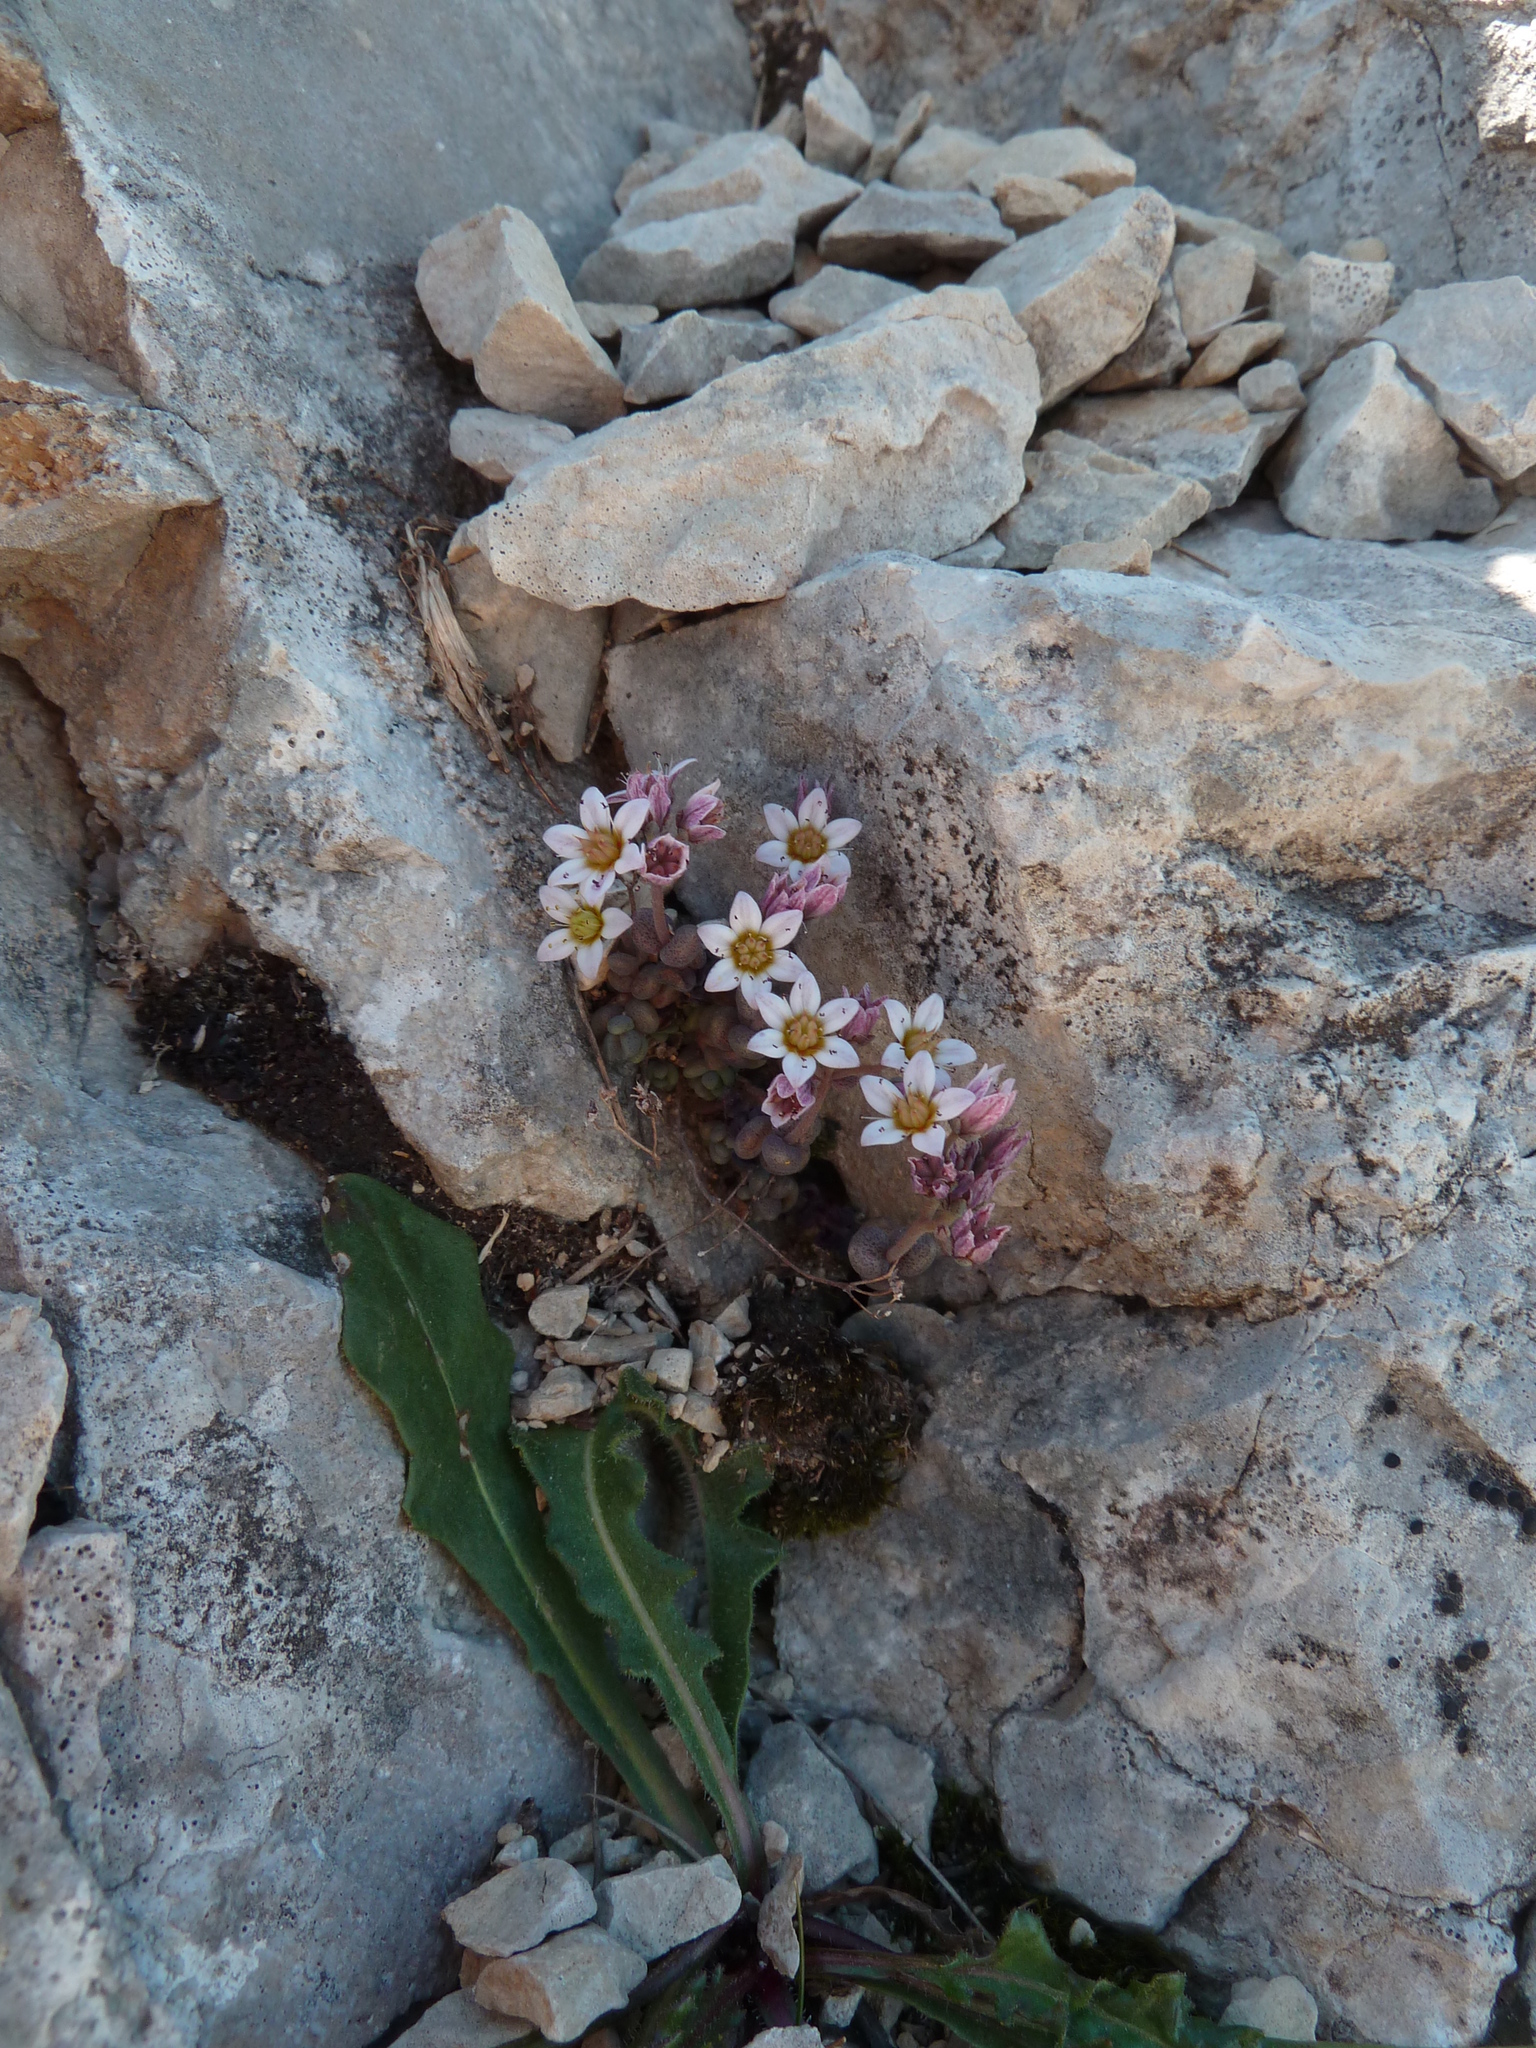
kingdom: Plantae
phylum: Tracheophyta
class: Magnoliopsida
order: Saxifragales
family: Crassulaceae
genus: Sedum
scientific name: Sedum dasyphyllum
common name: Thick-leaf stonecrop
